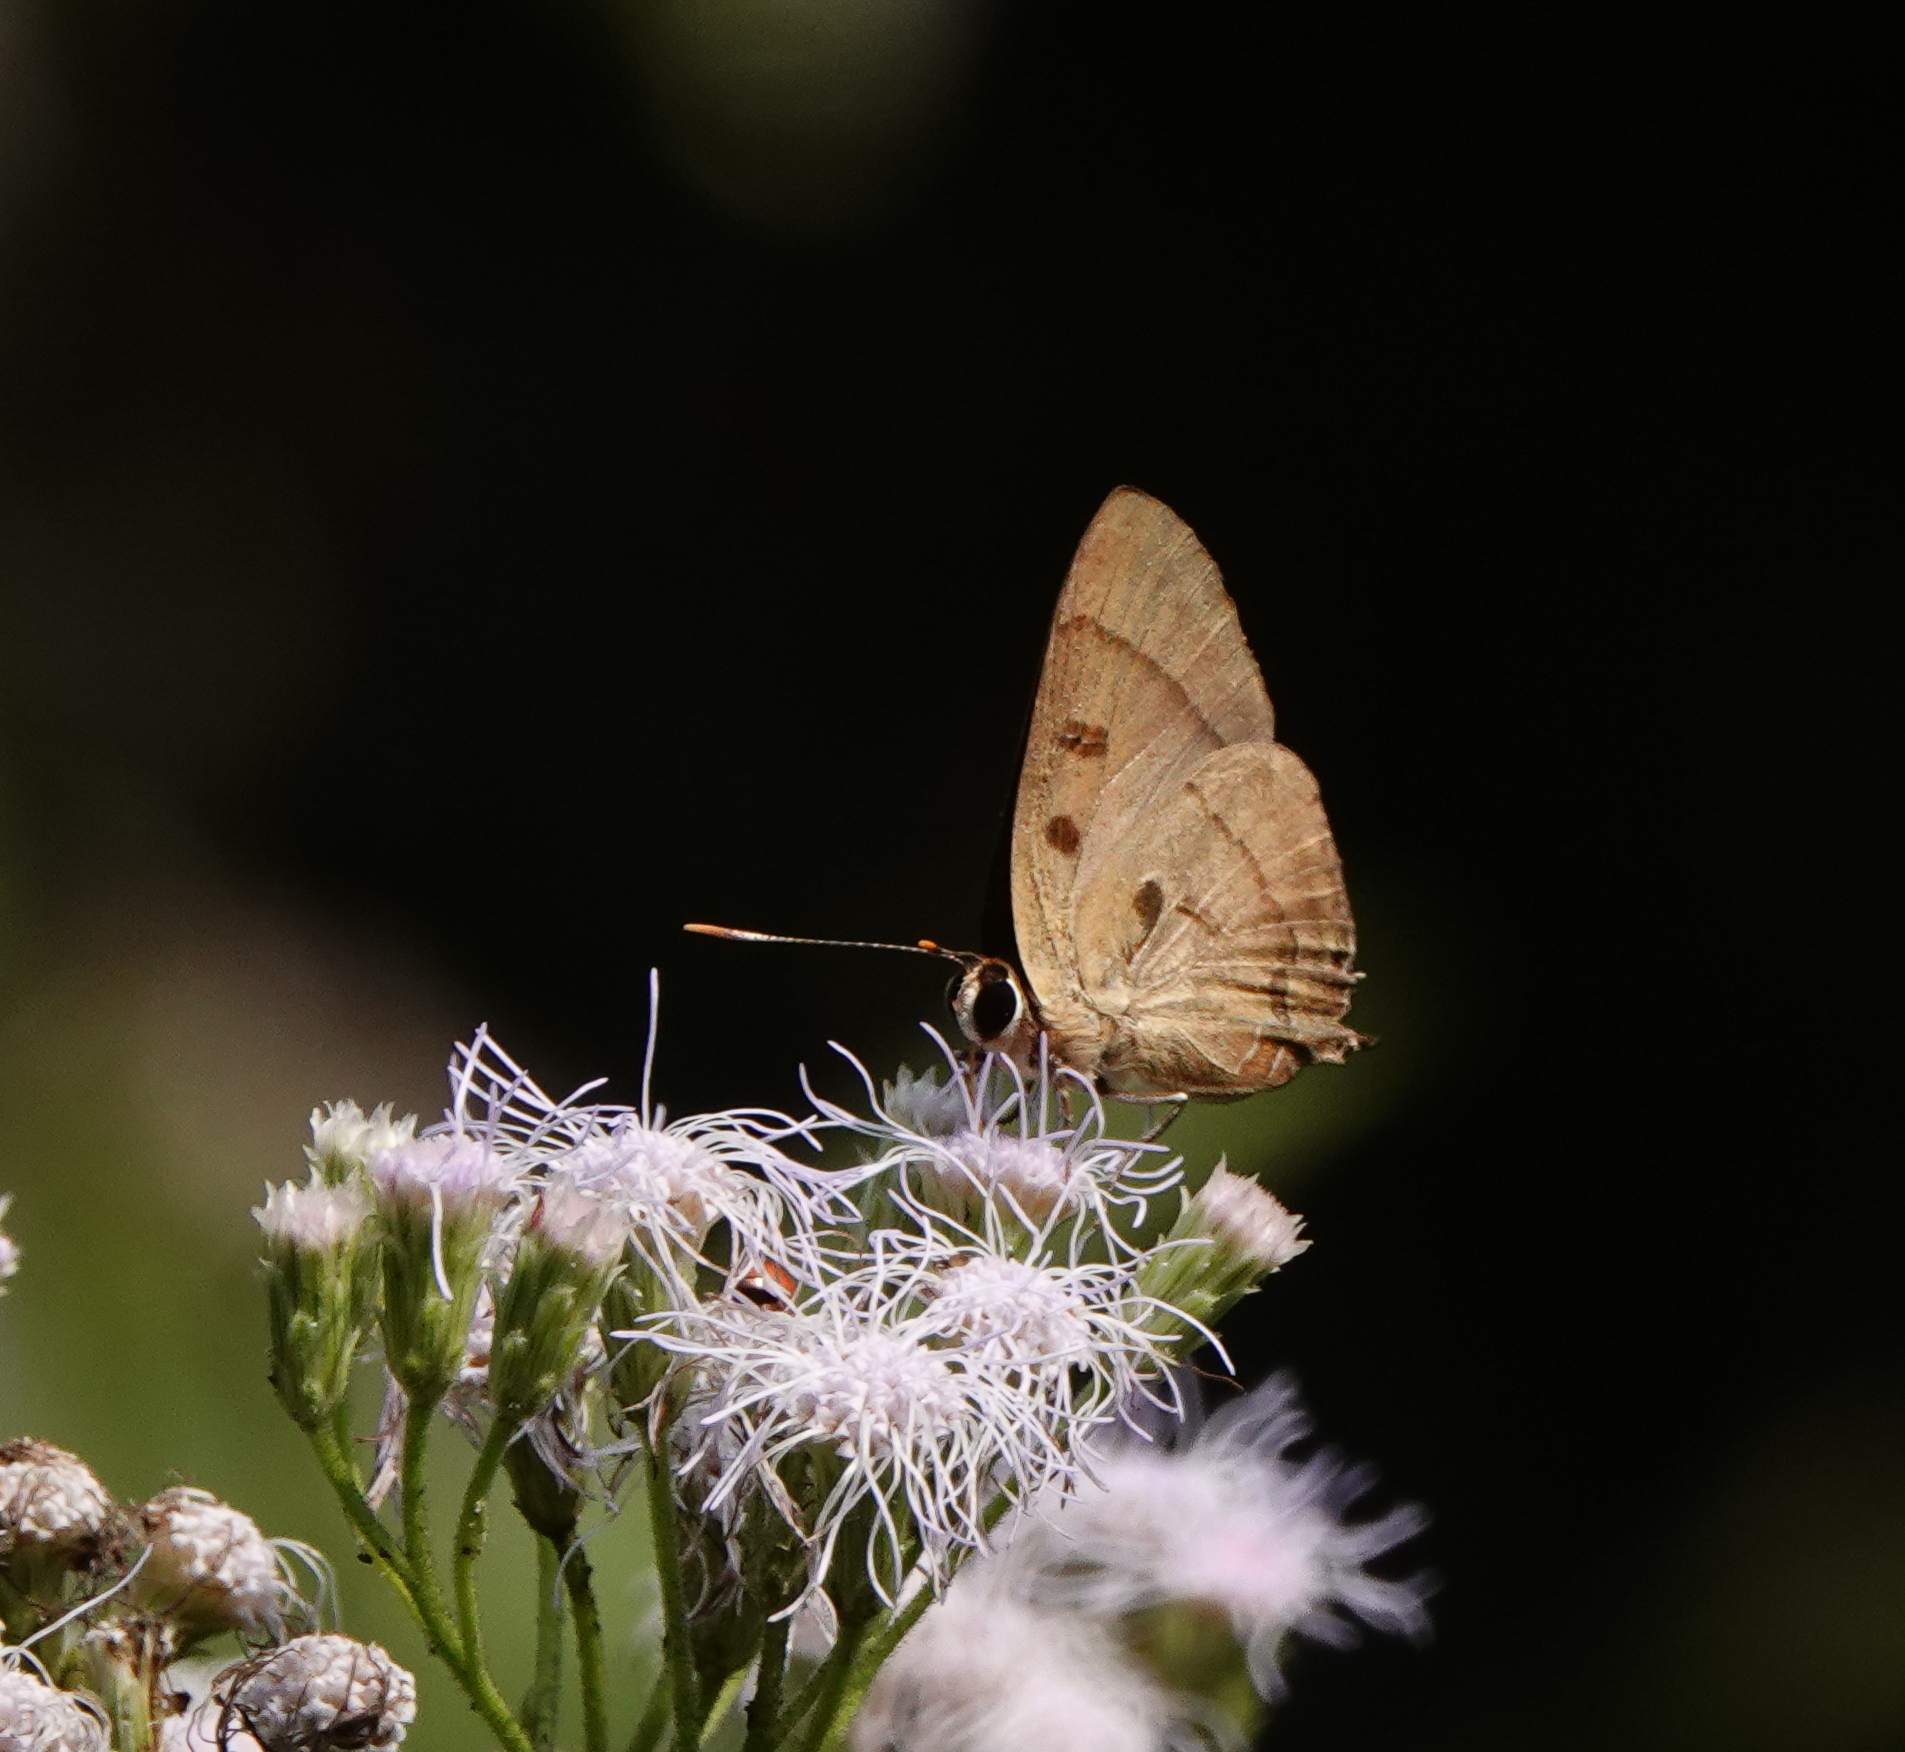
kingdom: Animalia
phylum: Arthropoda
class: Insecta
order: Lepidoptera
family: Lycaenidae
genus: Rapala
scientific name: Rapala pheretima
